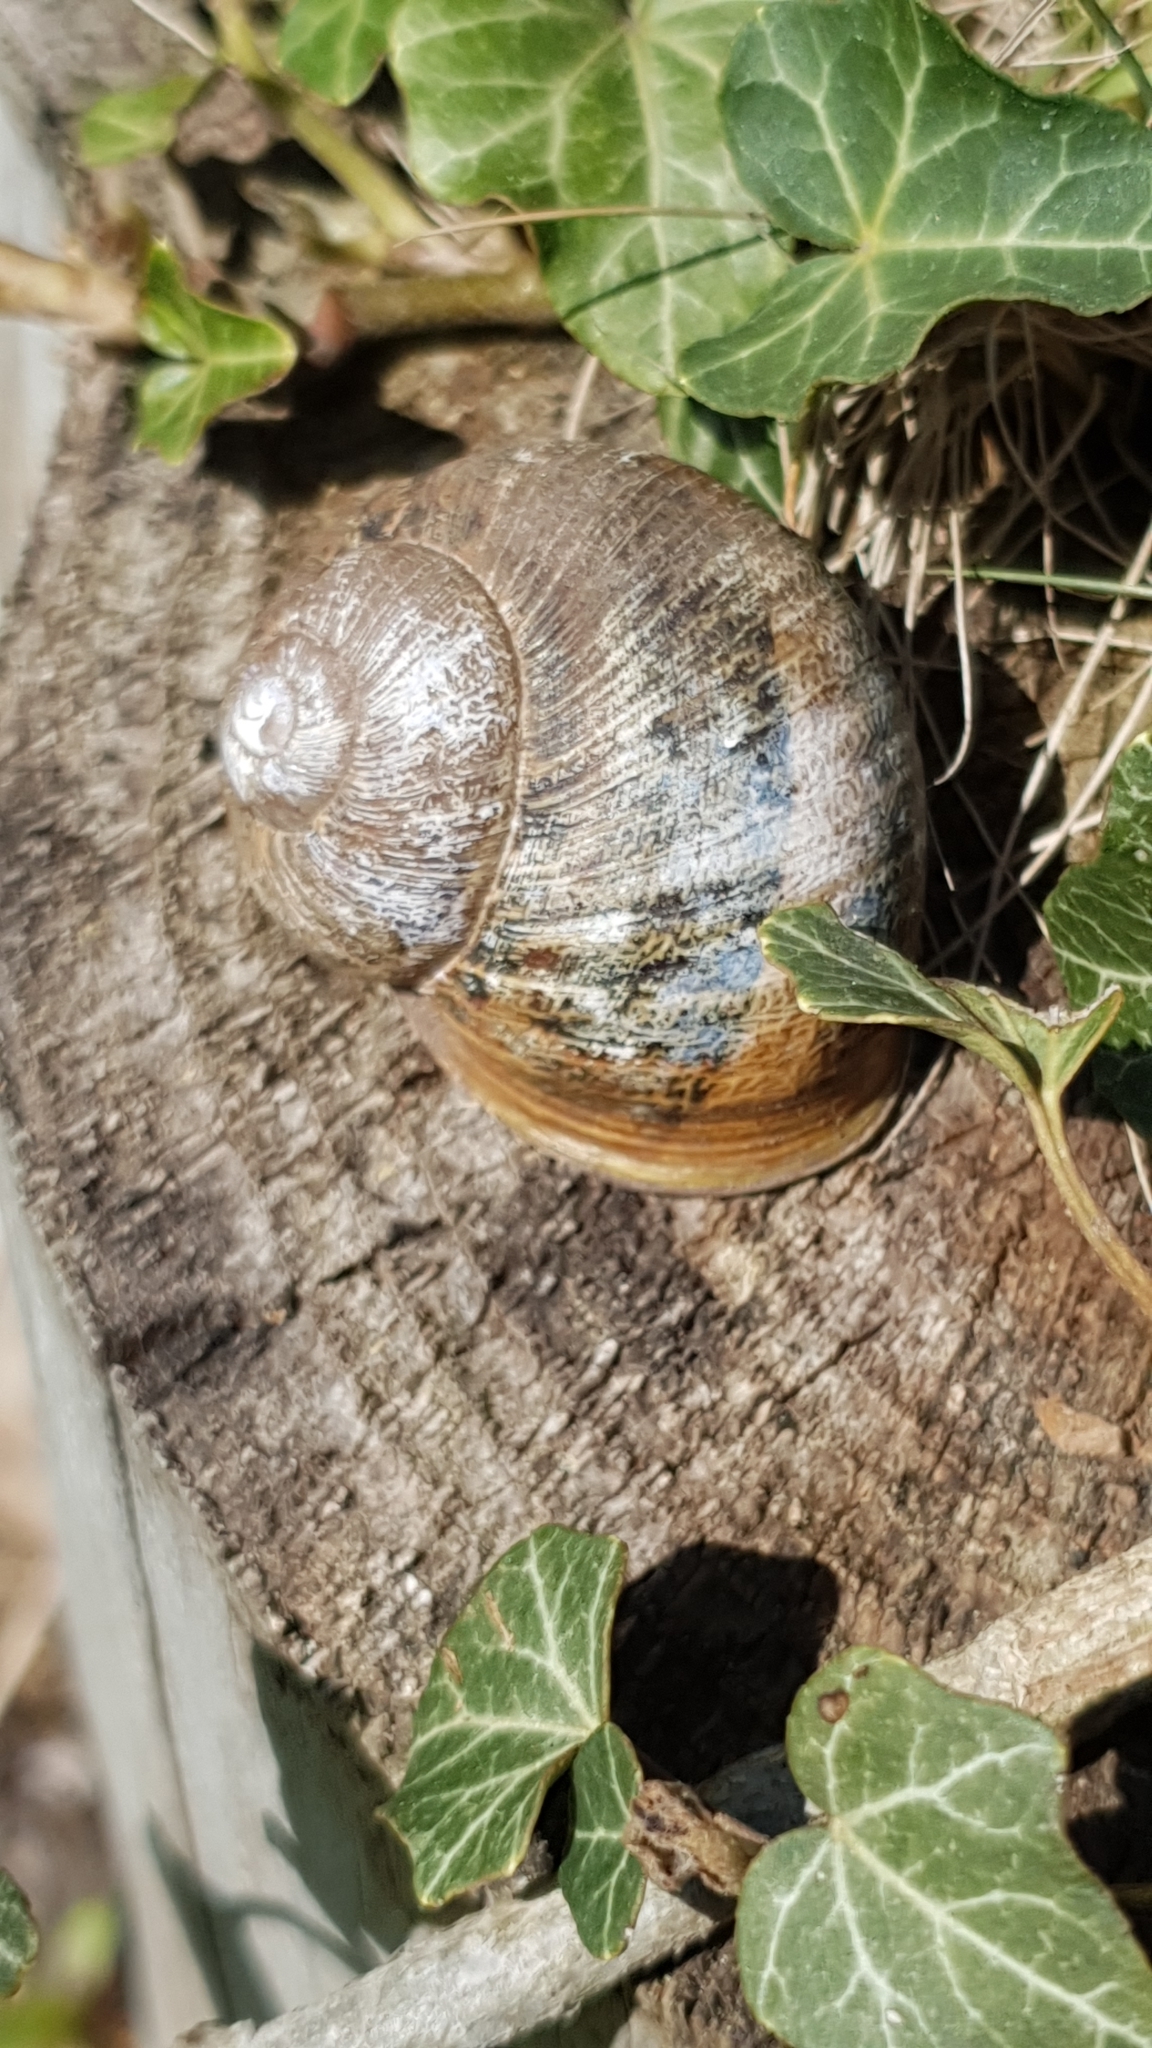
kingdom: Animalia
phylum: Mollusca
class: Gastropoda
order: Stylommatophora
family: Helicidae
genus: Helix
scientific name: Helix pomatia
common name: Roman snail
